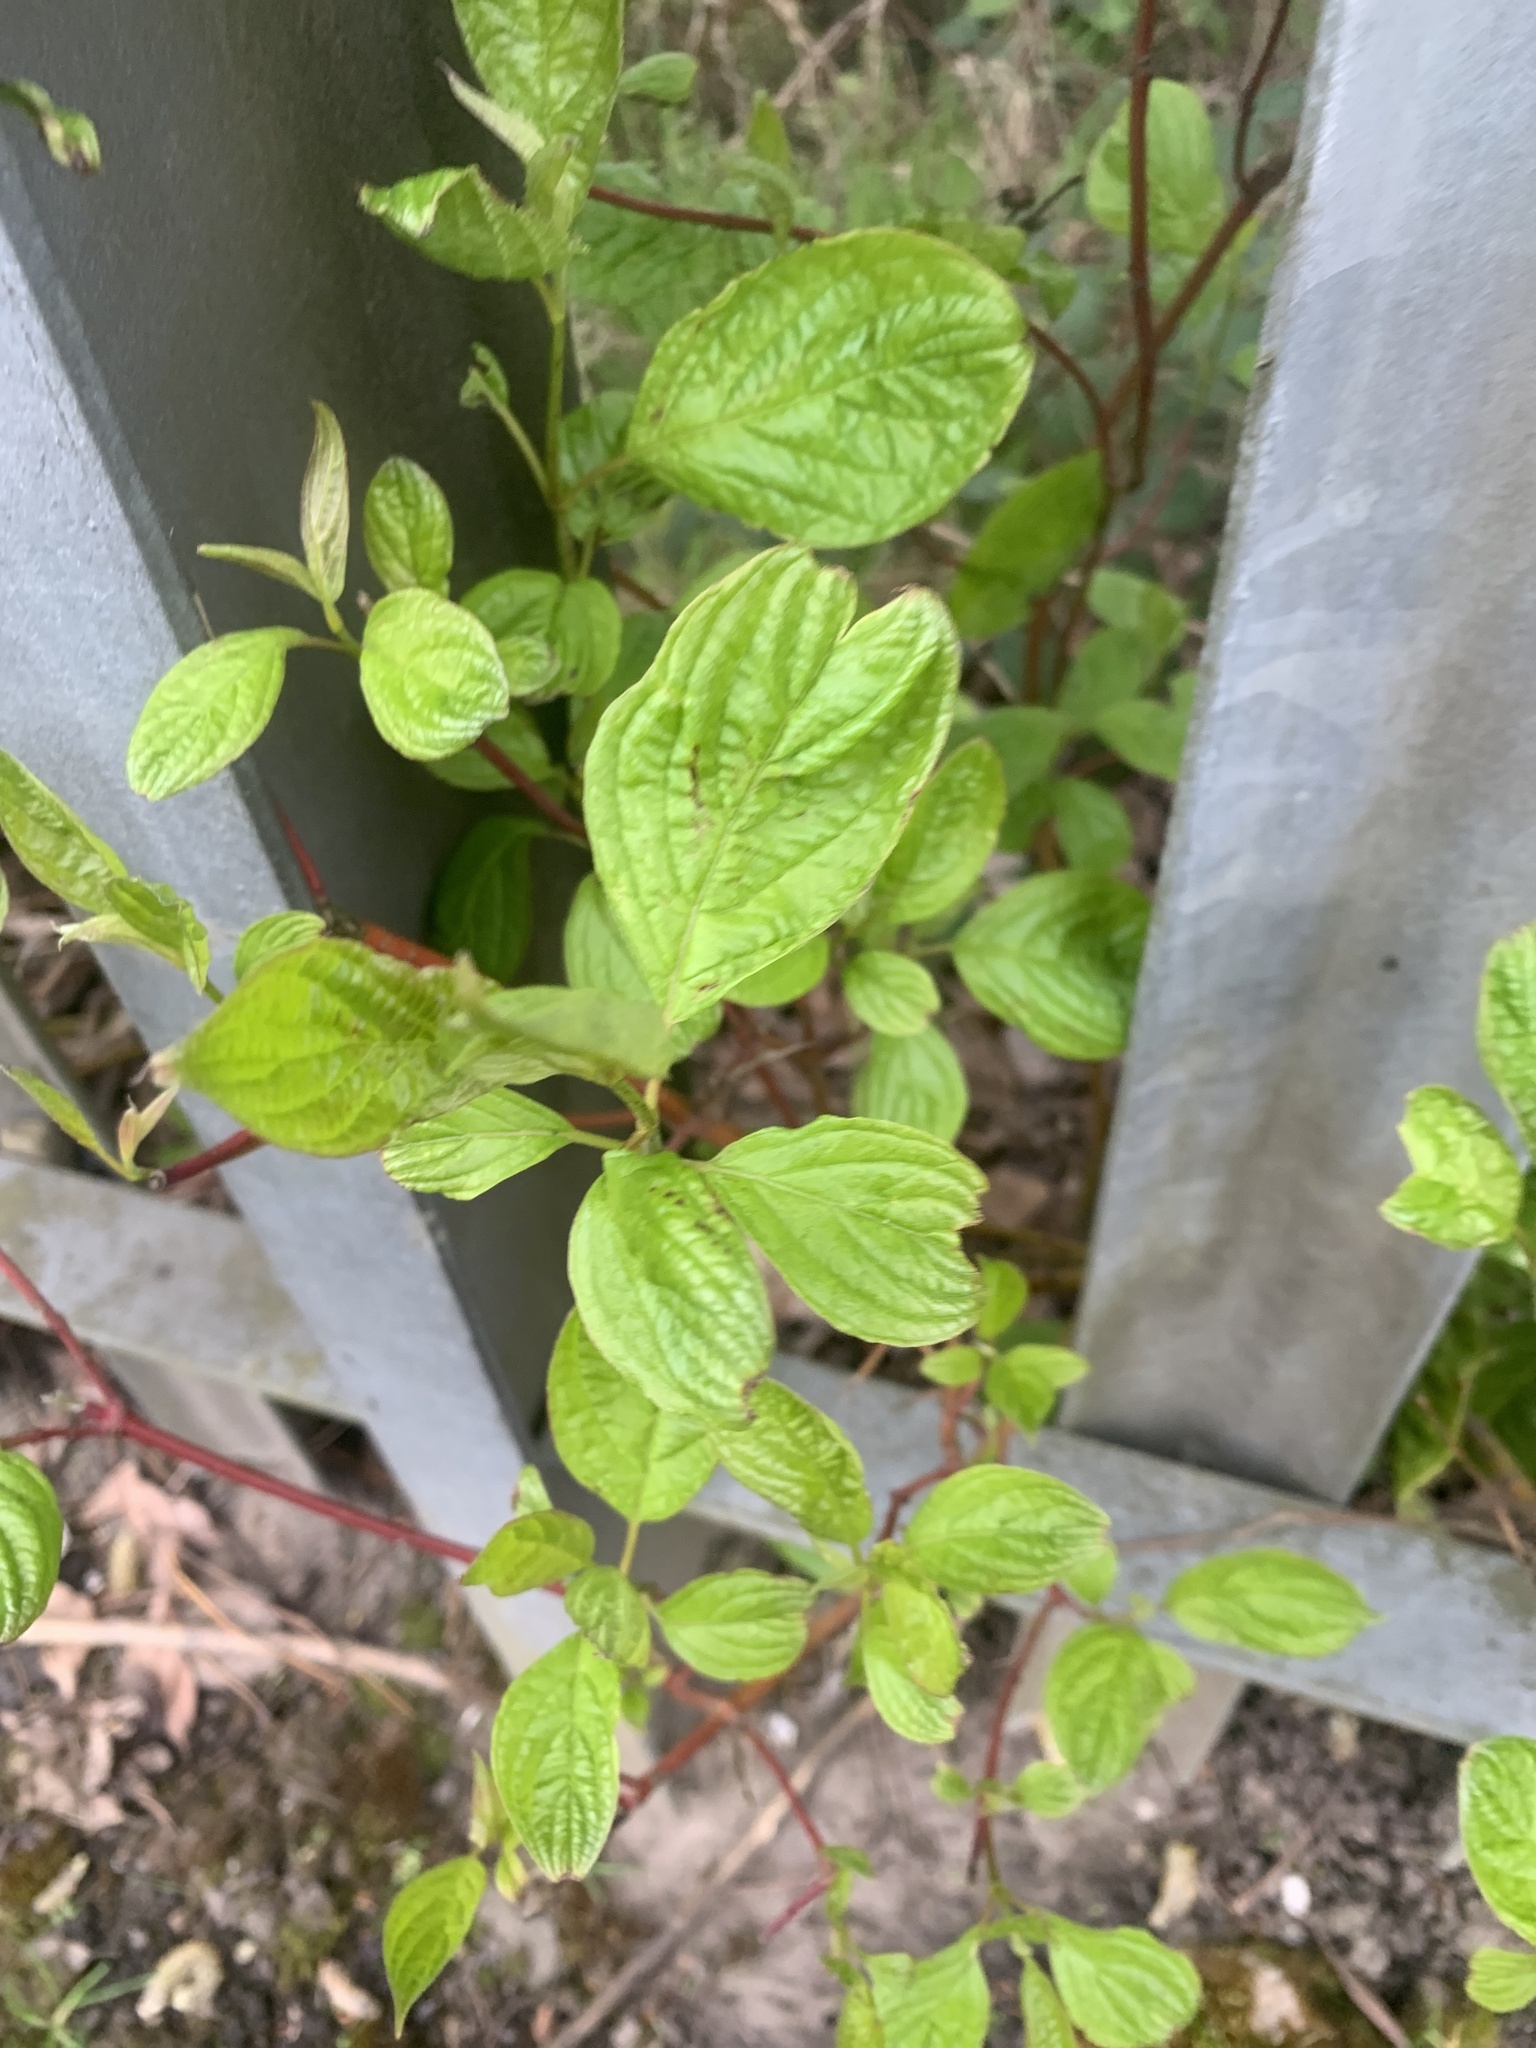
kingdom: Plantae
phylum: Tracheophyta
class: Magnoliopsida
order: Cornales
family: Cornaceae
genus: Cornus
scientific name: Cornus sanguinea
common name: Dogwood
